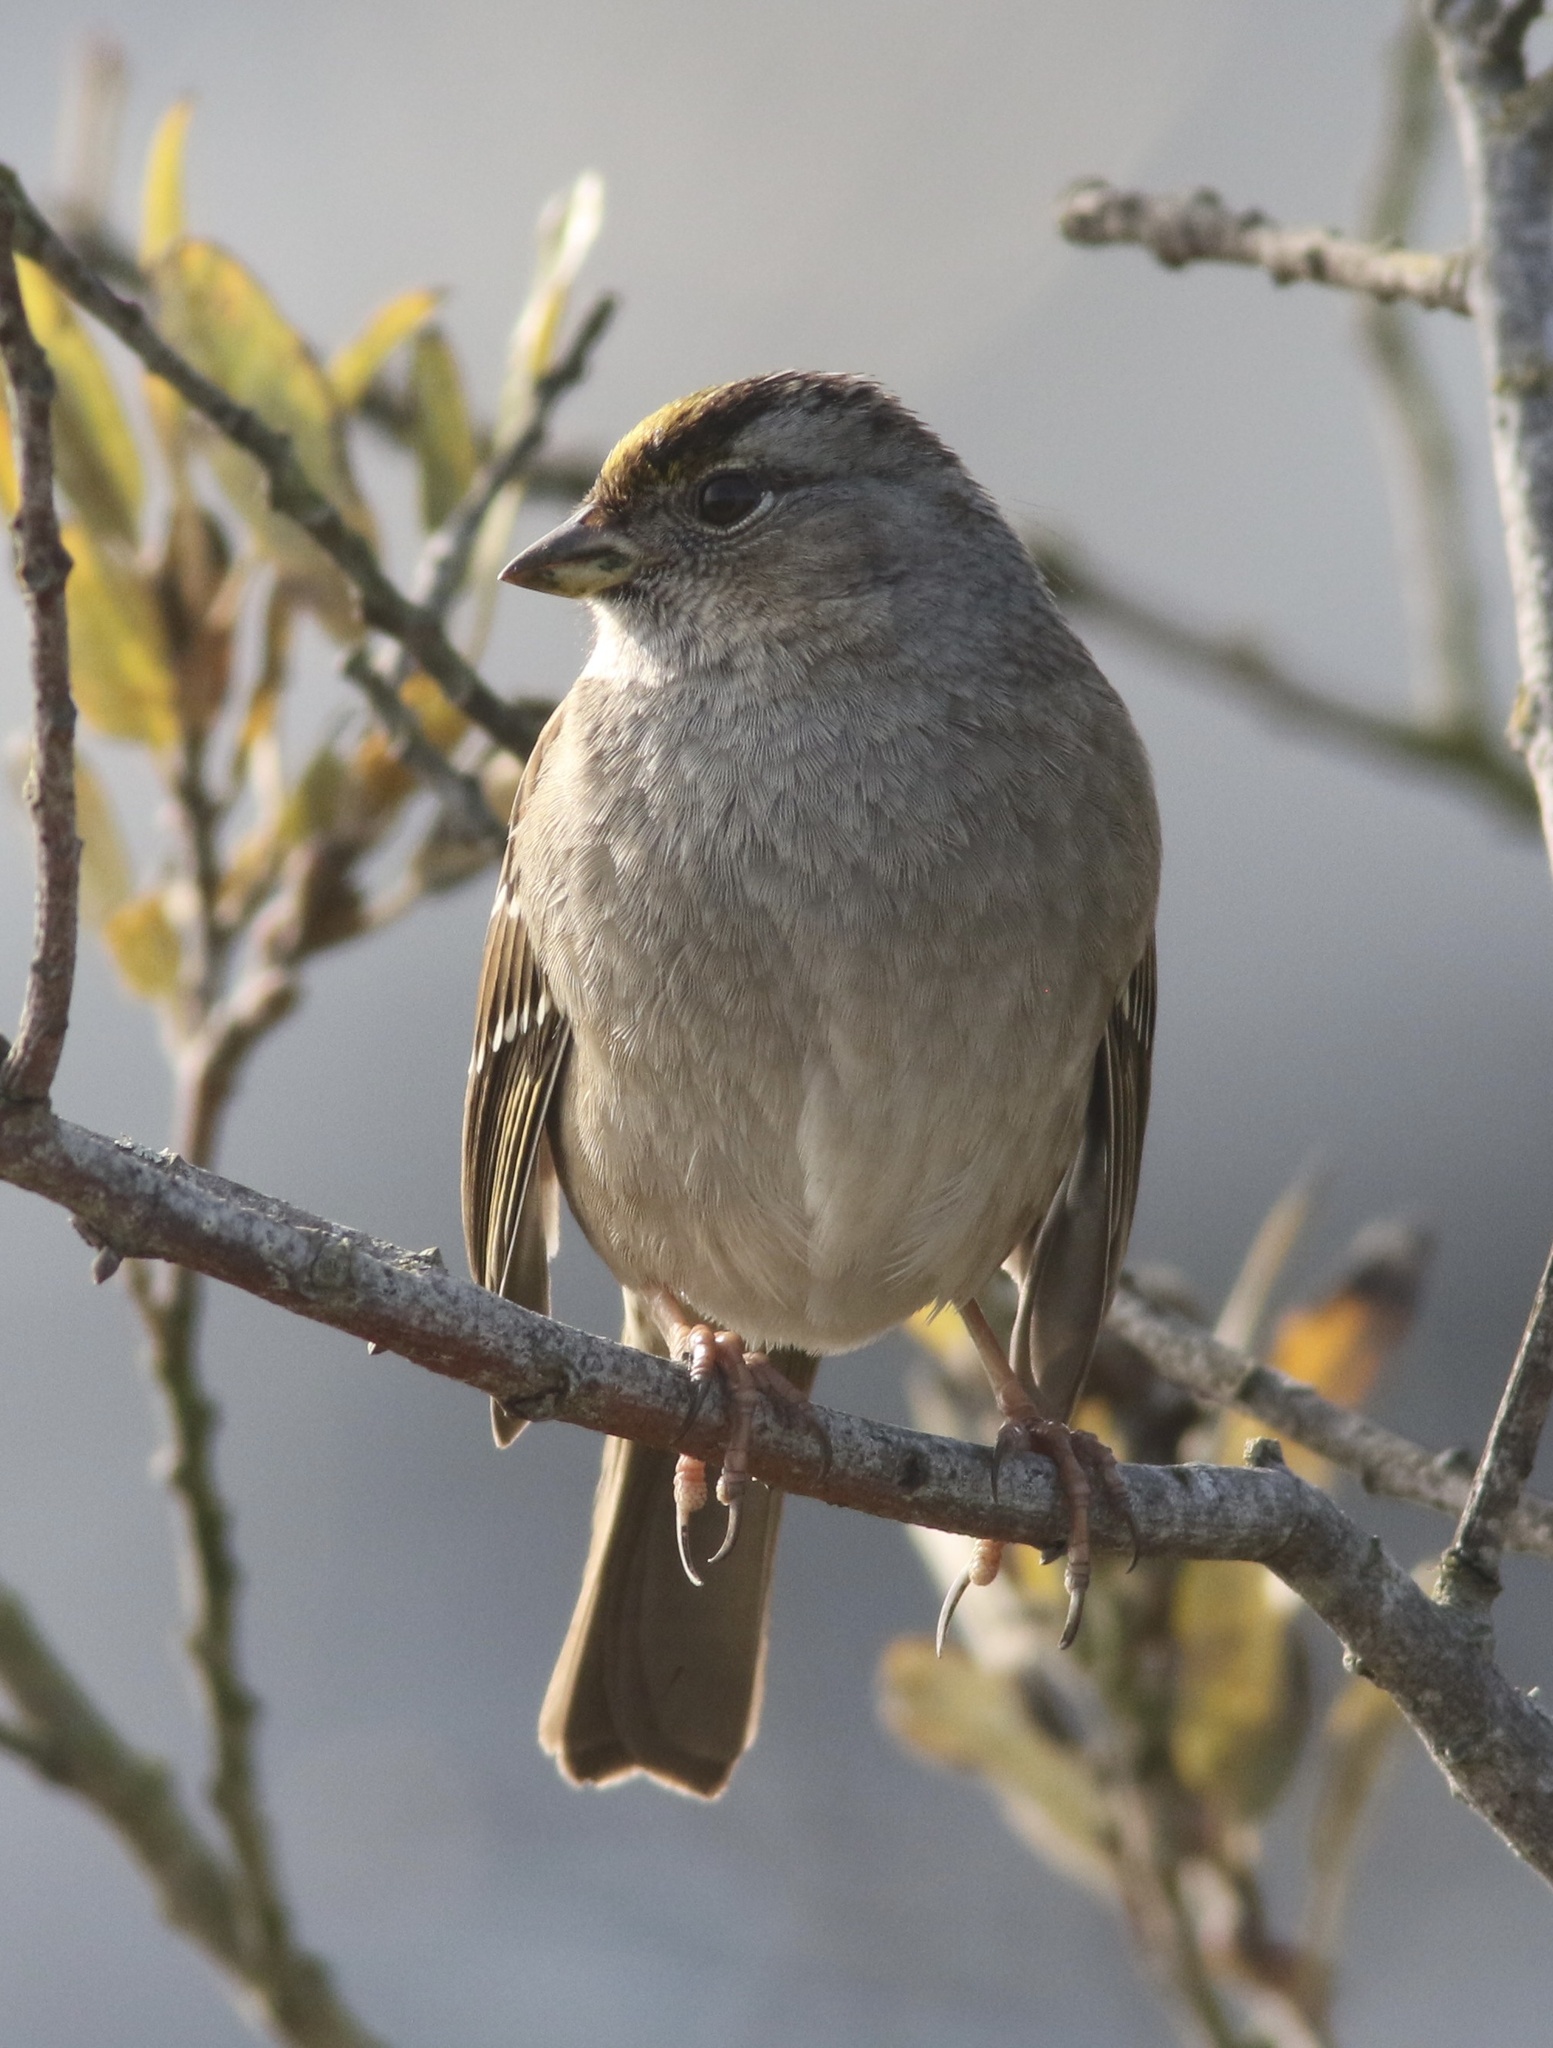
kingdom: Animalia
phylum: Chordata
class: Aves
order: Passeriformes
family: Passerellidae
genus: Zonotrichia
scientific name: Zonotrichia atricapilla
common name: Golden-crowned sparrow
